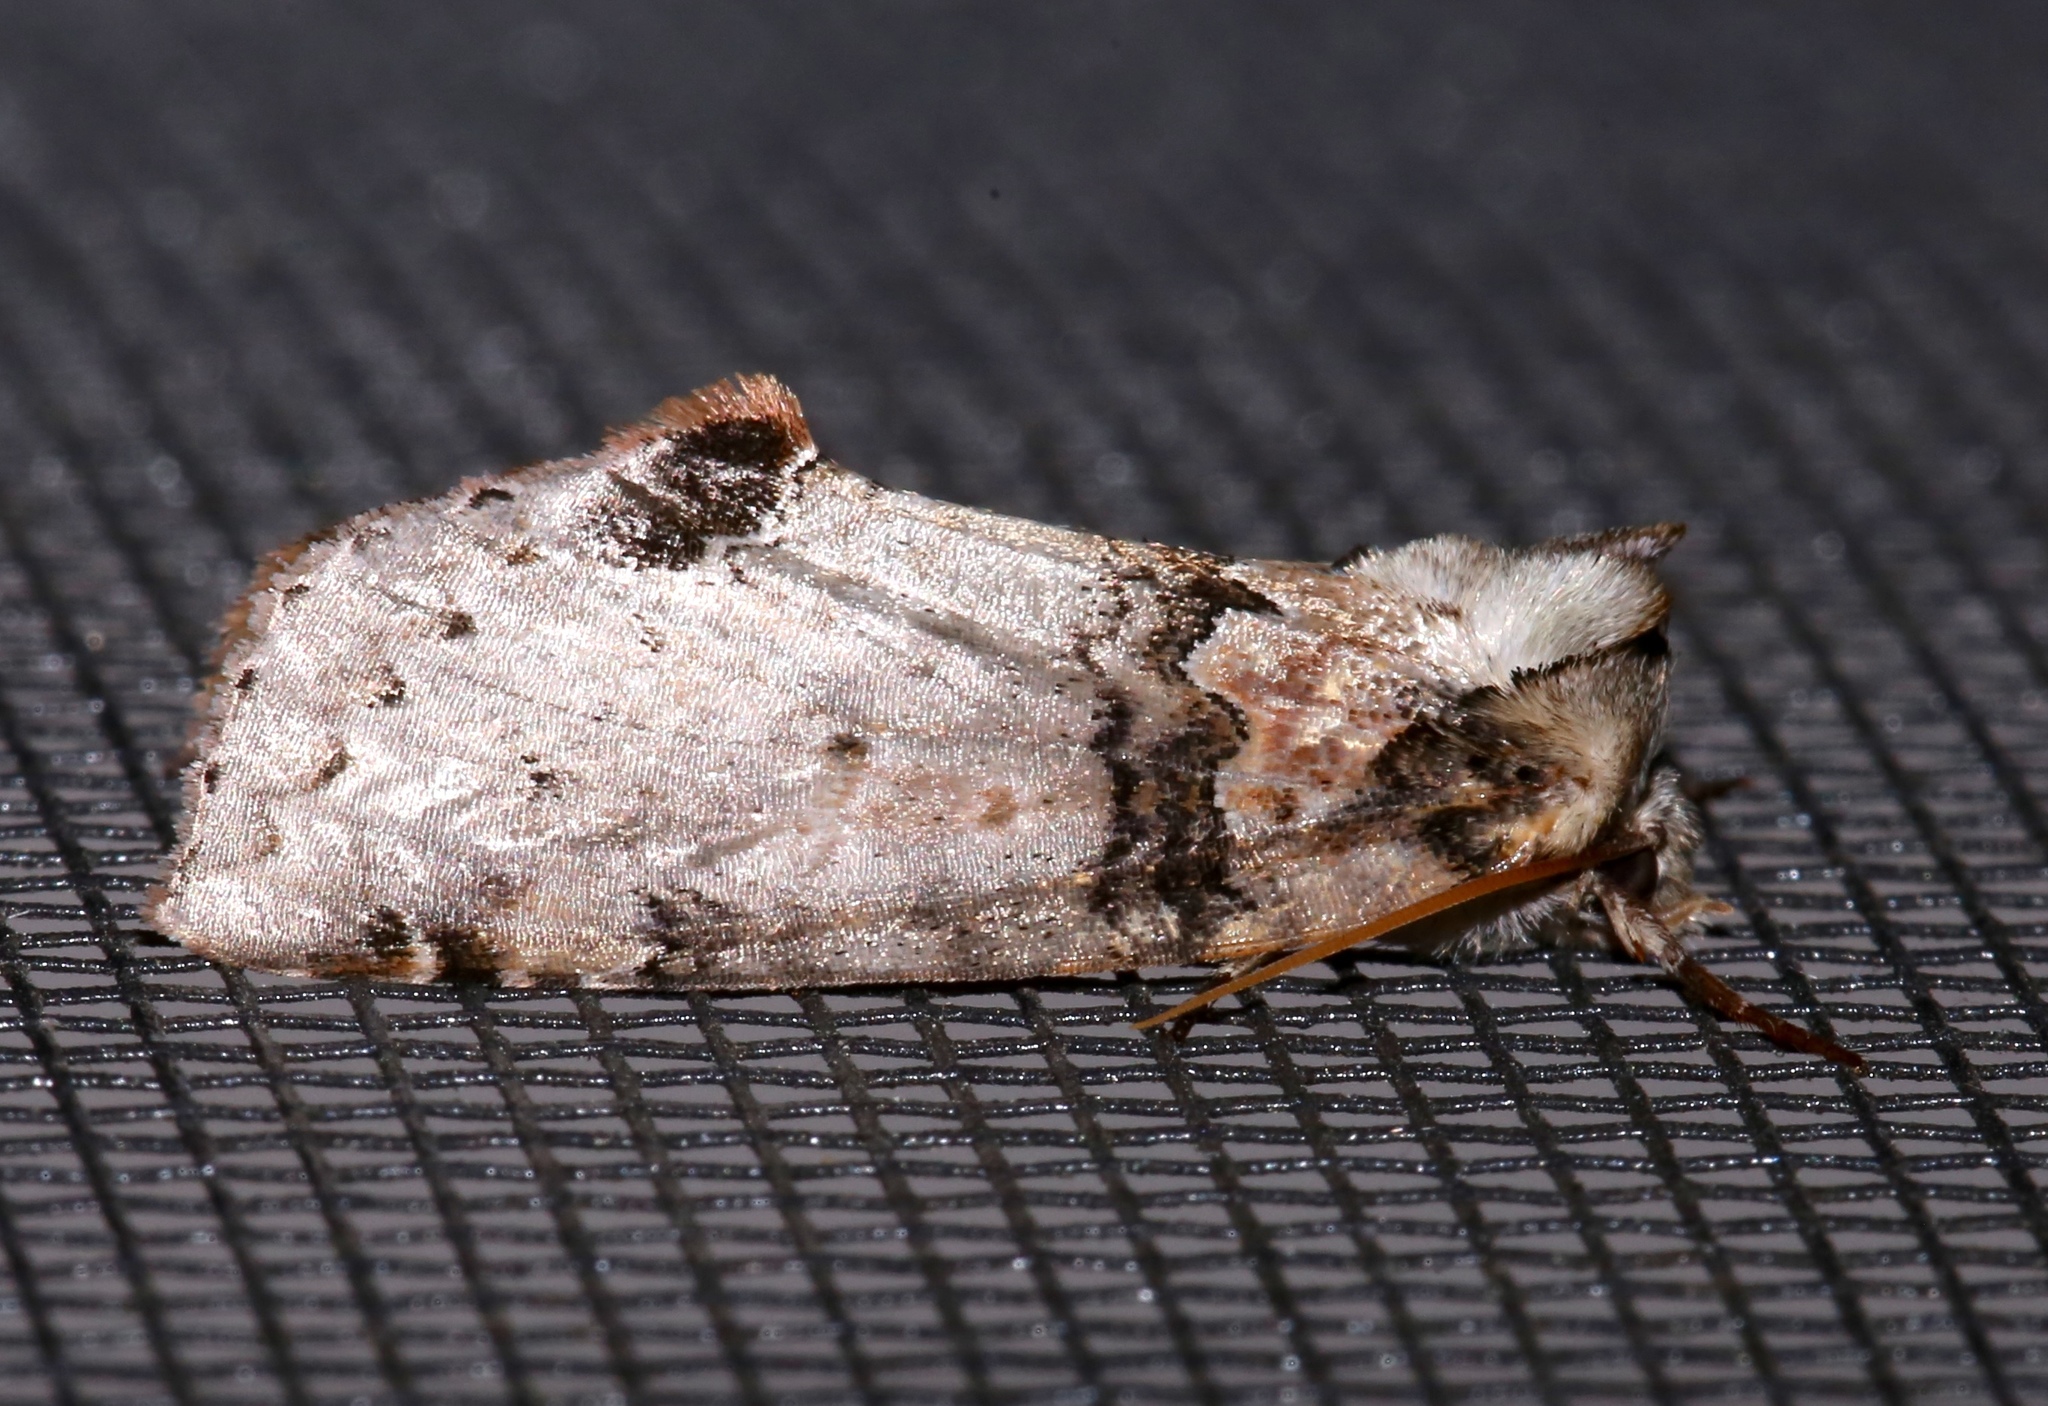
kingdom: Animalia
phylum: Arthropoda
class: Insecta
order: Lepidoptera
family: Drepanidae
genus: Pseudothyatira
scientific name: Pseudothyatira cymatophoroides
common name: Tufted thyatirid moth
